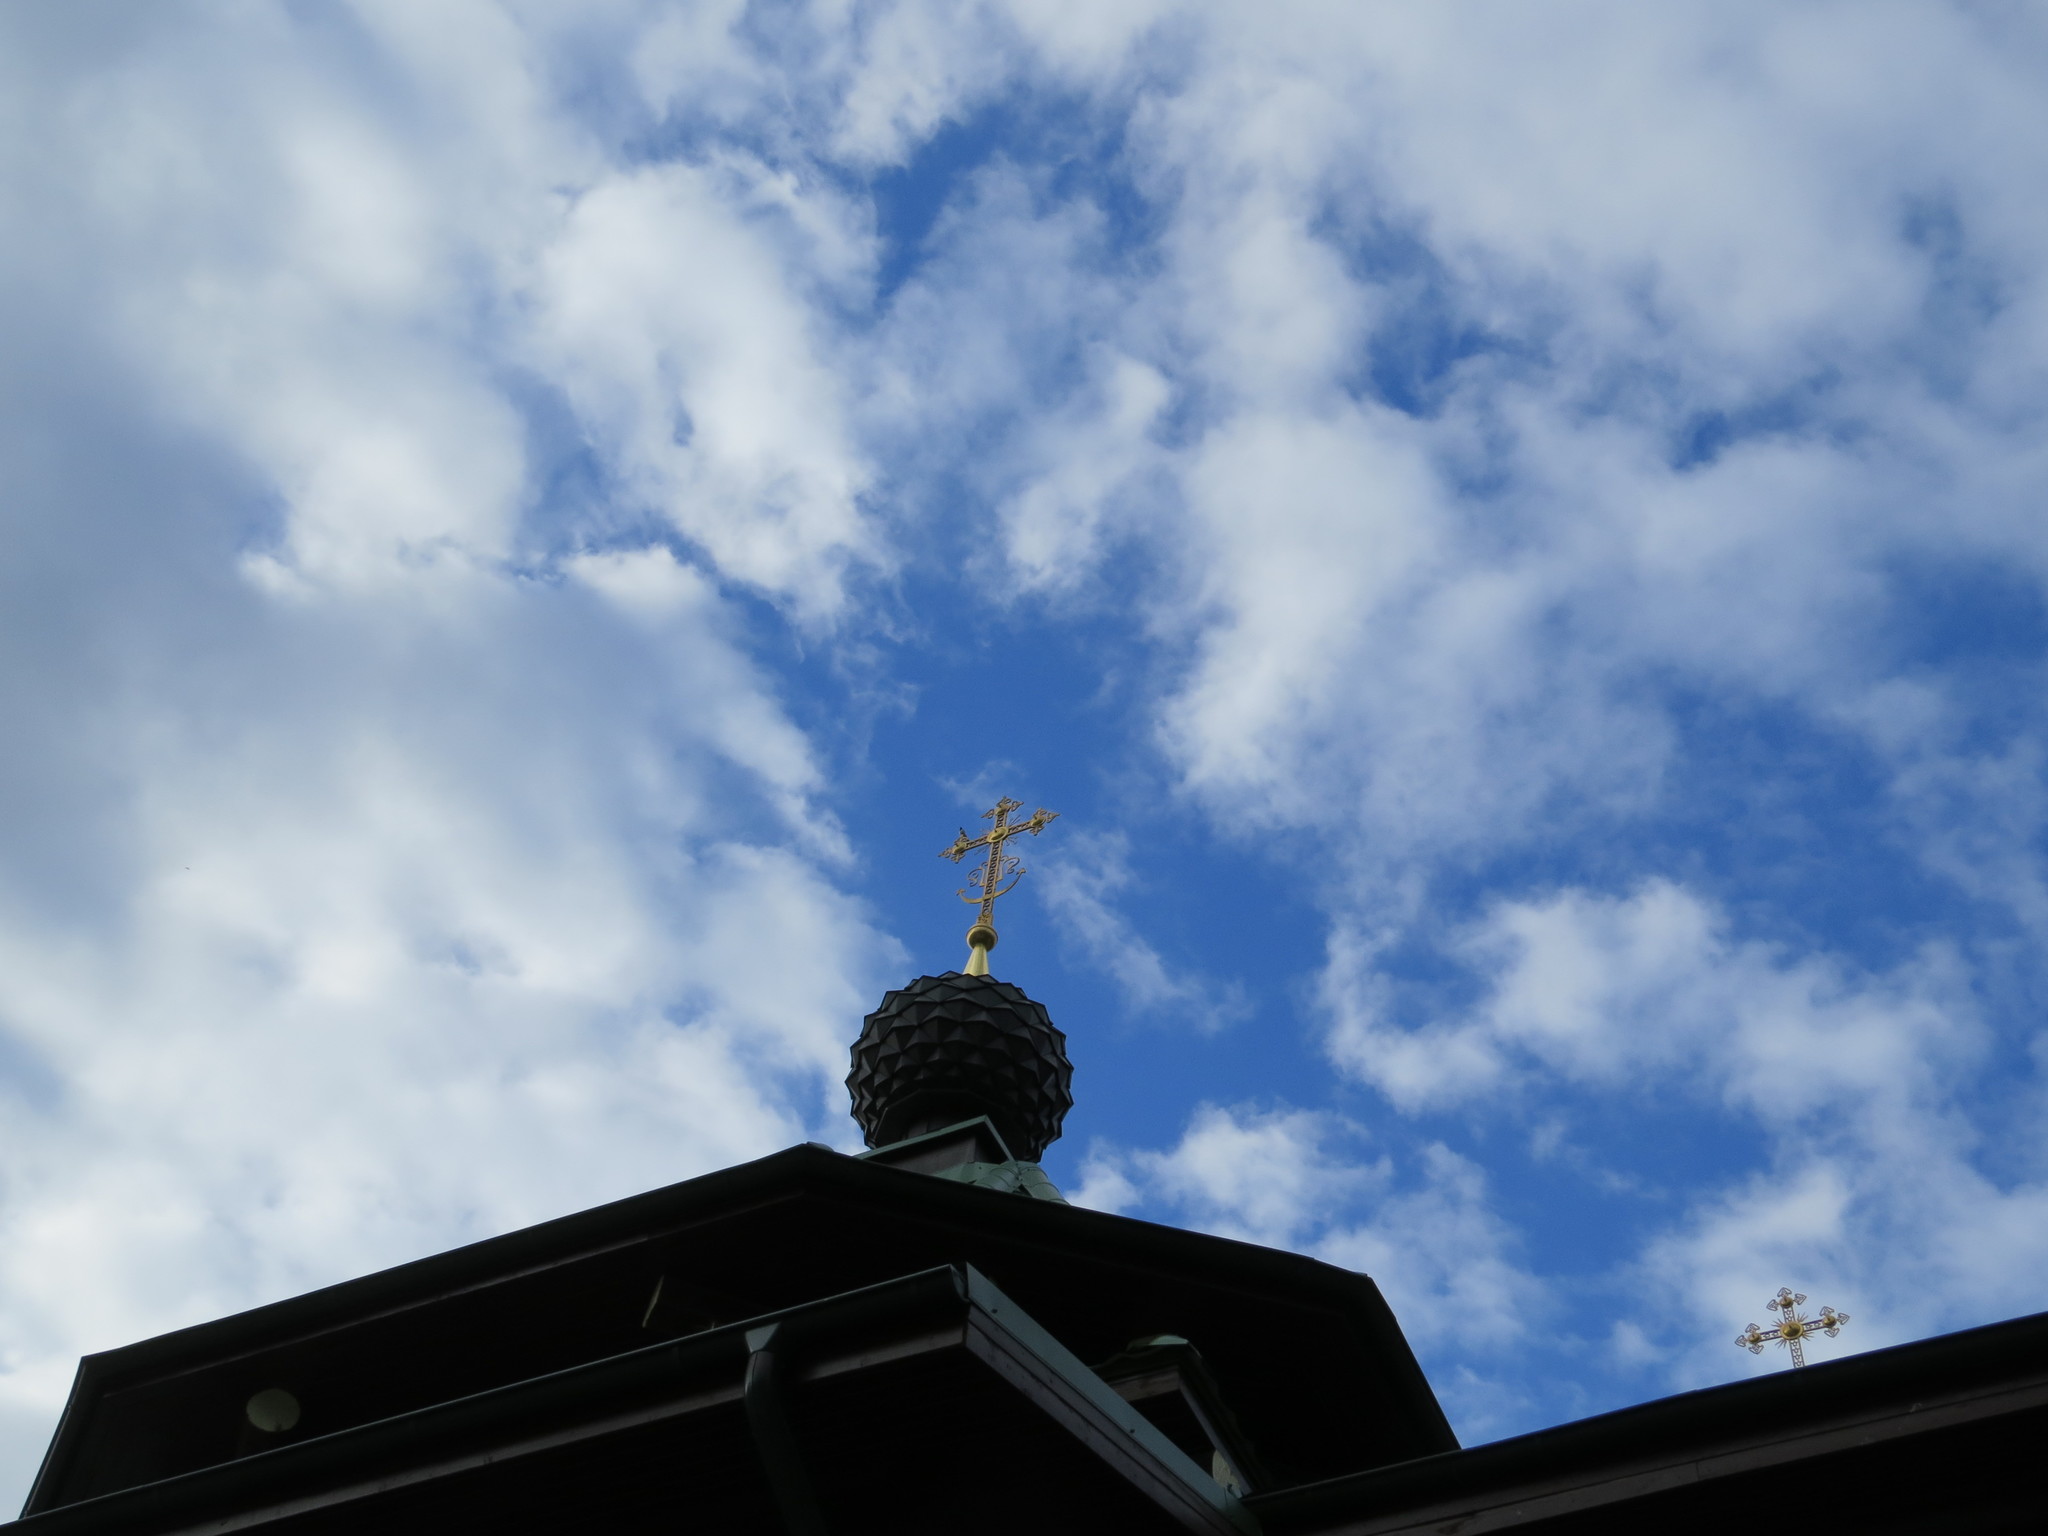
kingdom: Animalia
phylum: Chordata
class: Aves
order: Passeriformes
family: Hirundinidae
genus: Hirundo
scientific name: Hirundo rustica
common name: Barn swallow
